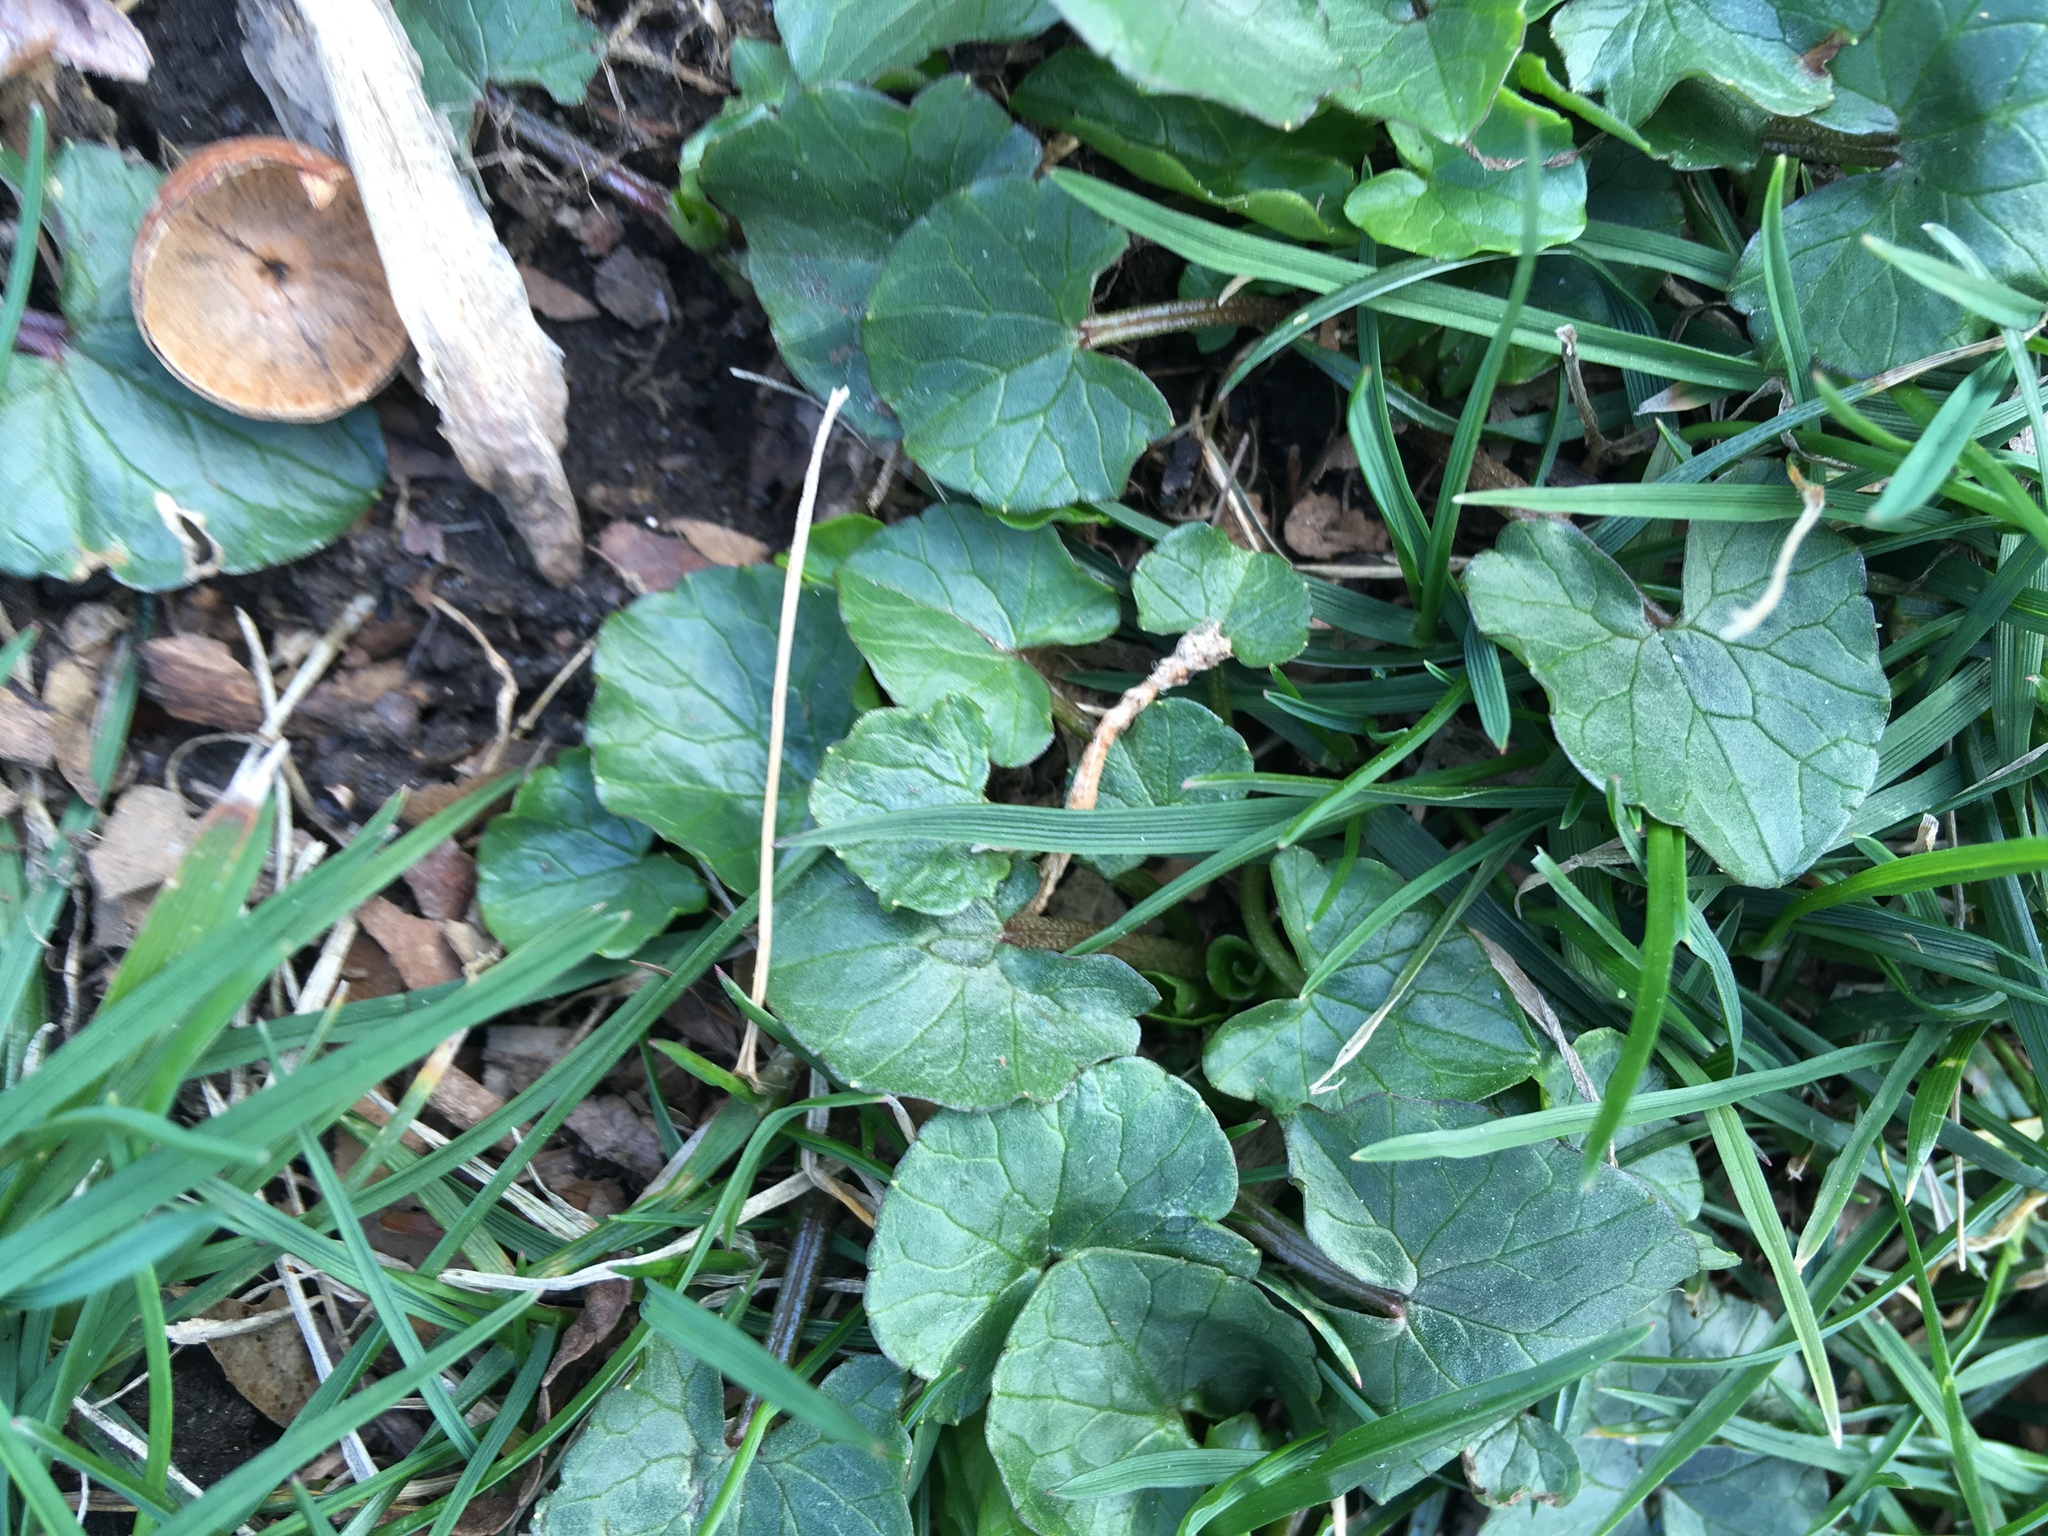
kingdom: Plantae
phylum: Tracheophyta
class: Magnoliopsida
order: Ranunculales
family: Ranunculaceae
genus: Ficaria
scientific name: Ficaria verna
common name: Lesser celandine
